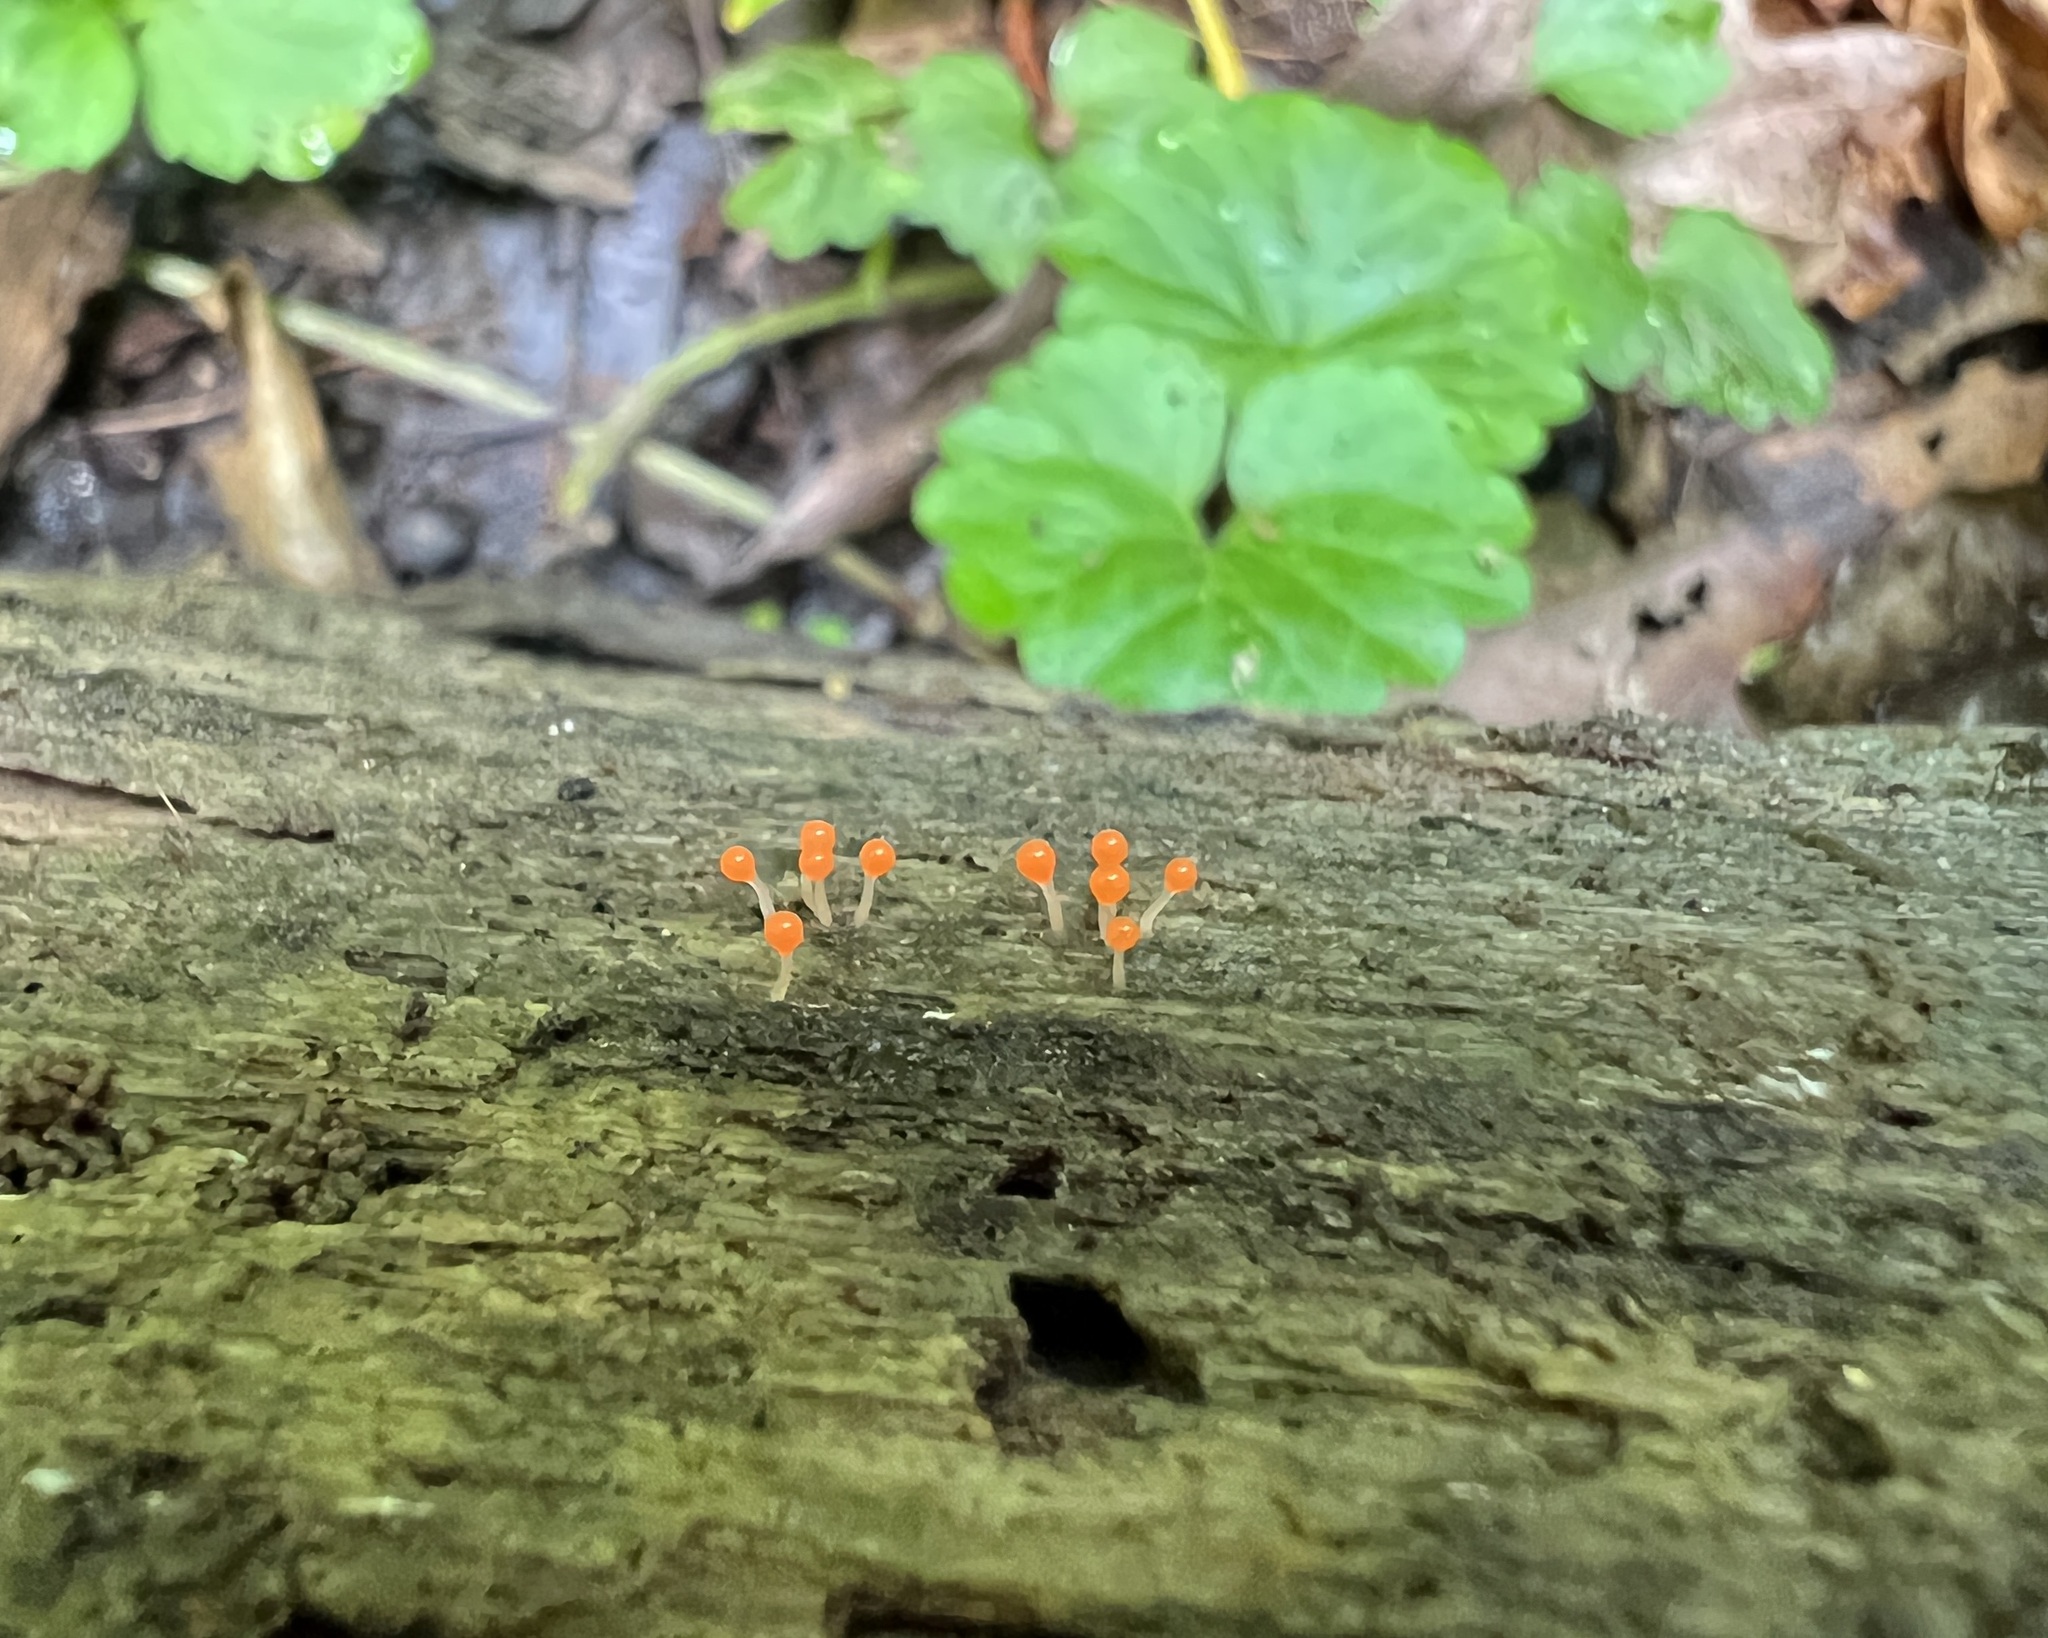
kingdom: Protozoa
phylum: Mycetozoa
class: Myxomycetes
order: Trichiales
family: Arcyriaceae
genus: Hemitrichia
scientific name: Hemitrichia decipiens
